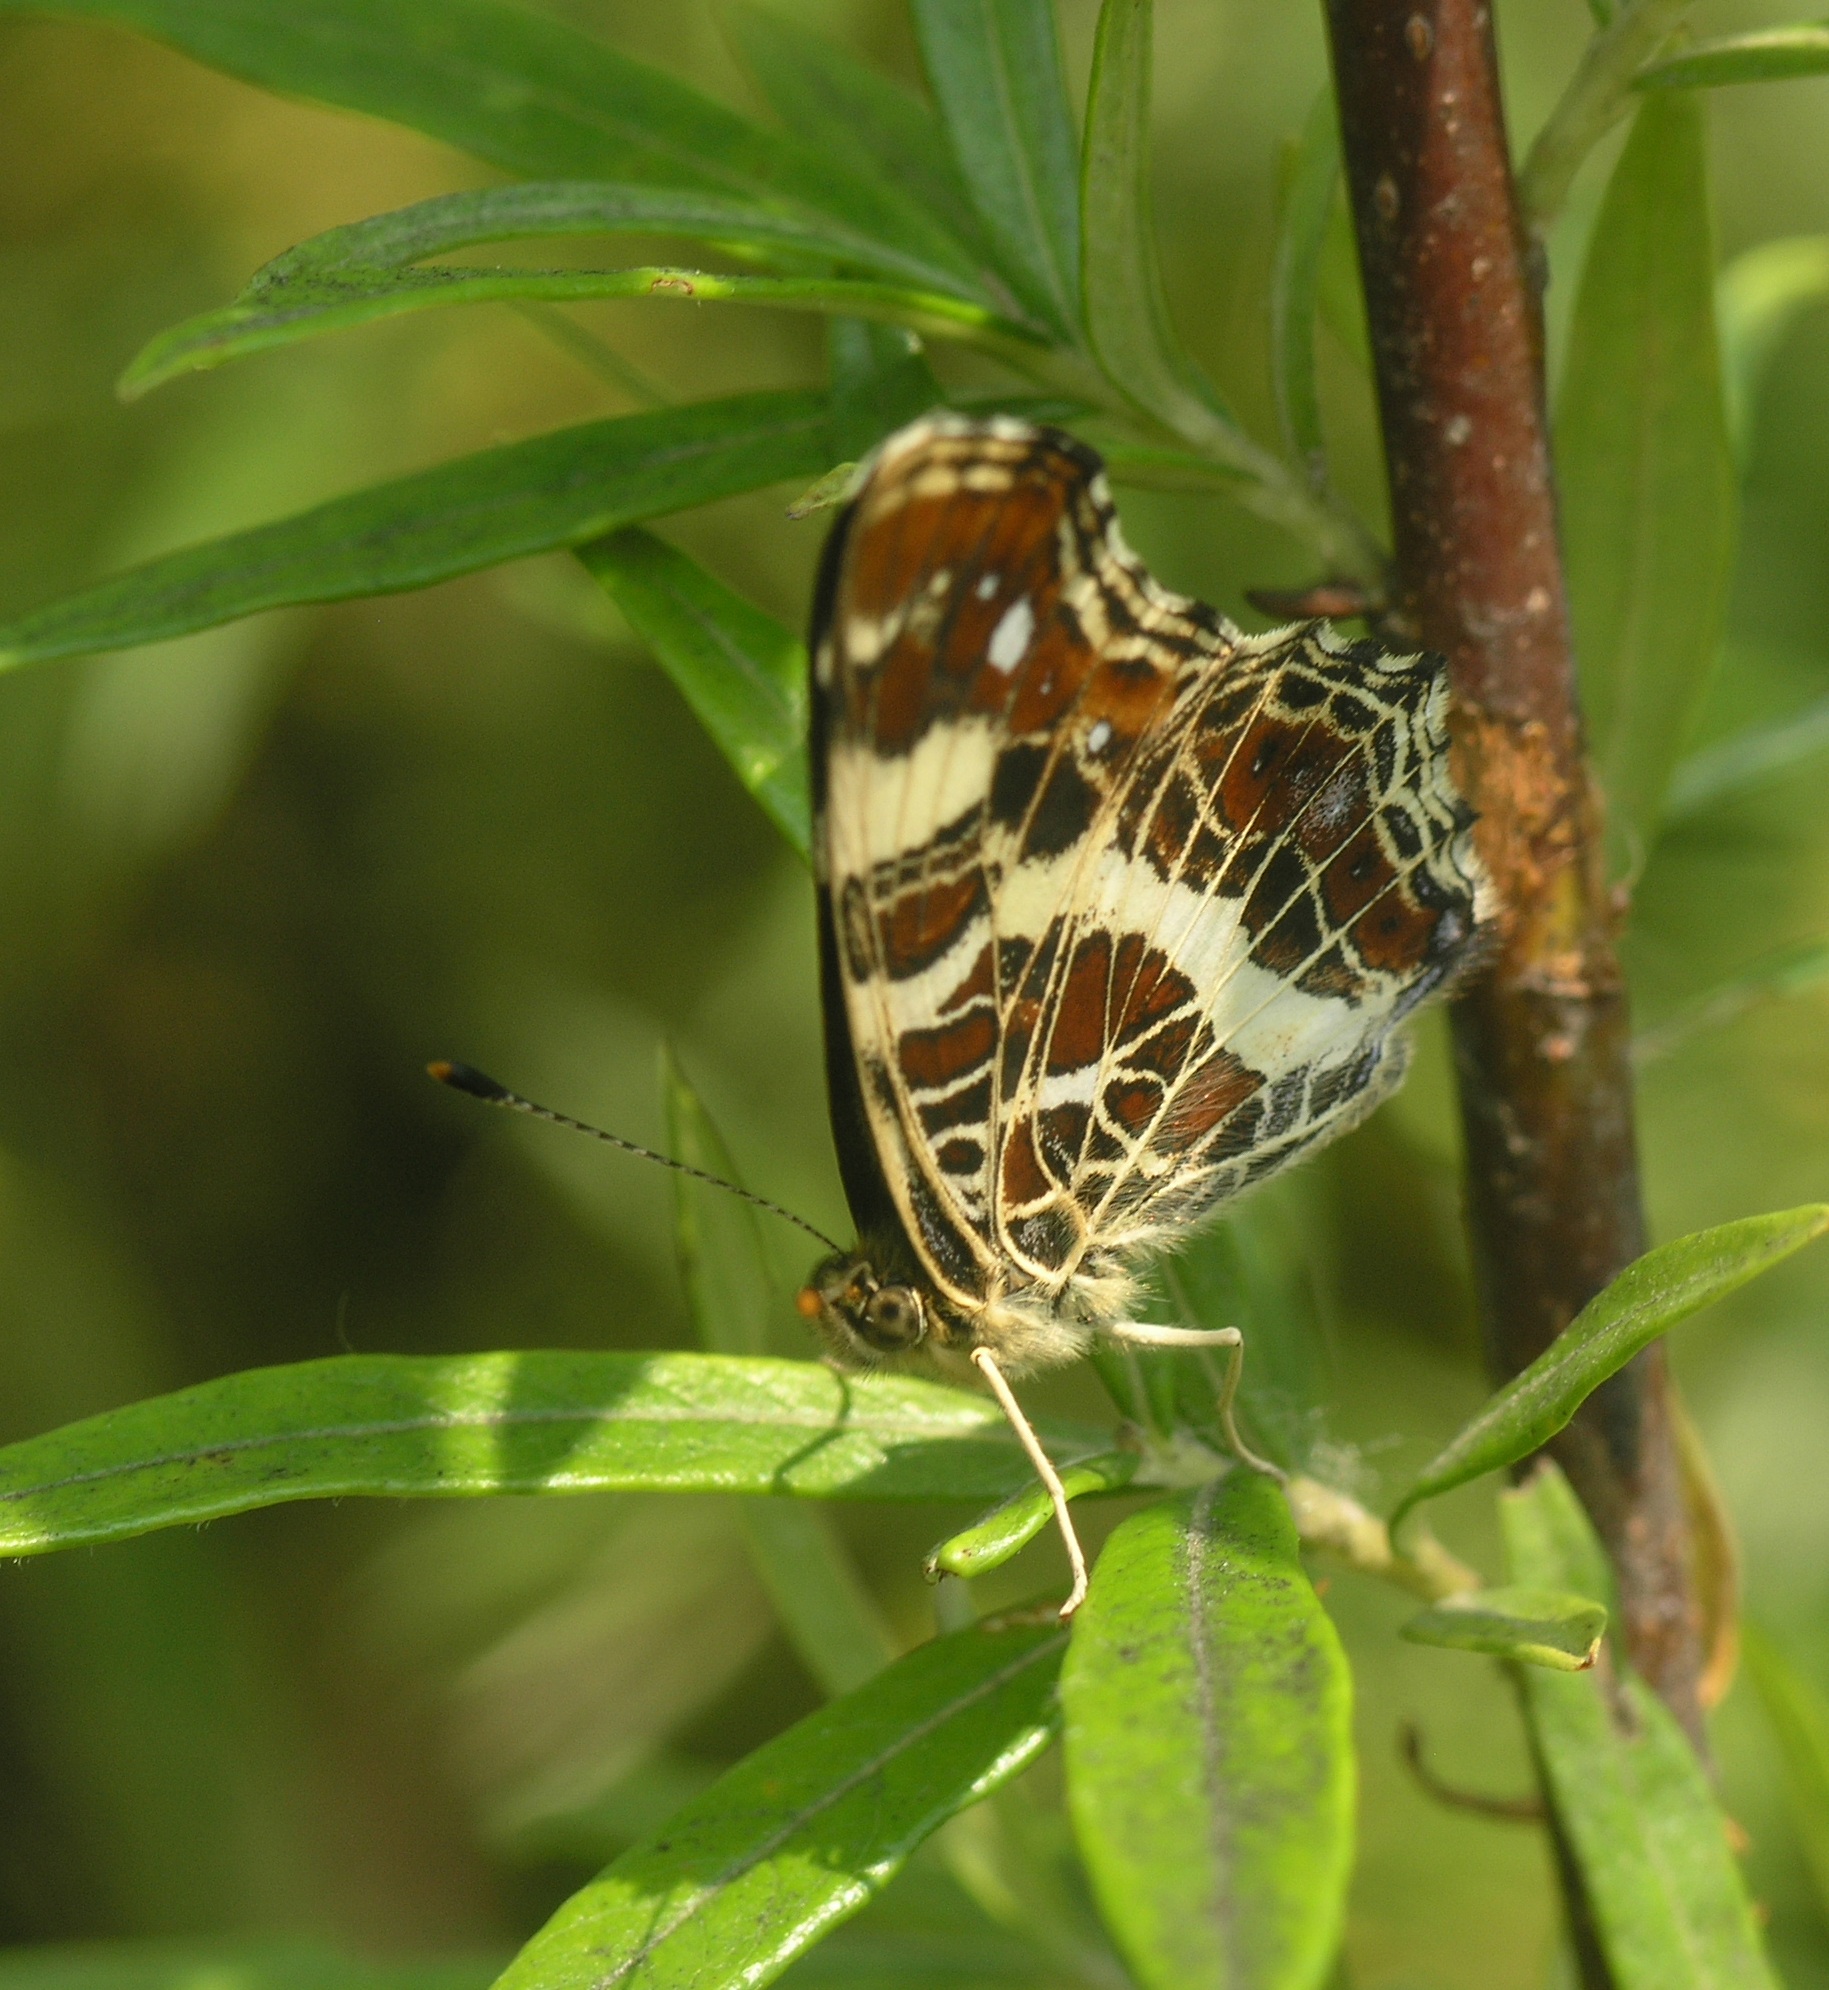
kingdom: Animalia
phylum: Arthropoda
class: Insecta
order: Lepidoptera
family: Nymphalidae
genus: Araschnia
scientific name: Araschnia levana
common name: Map butterfly
